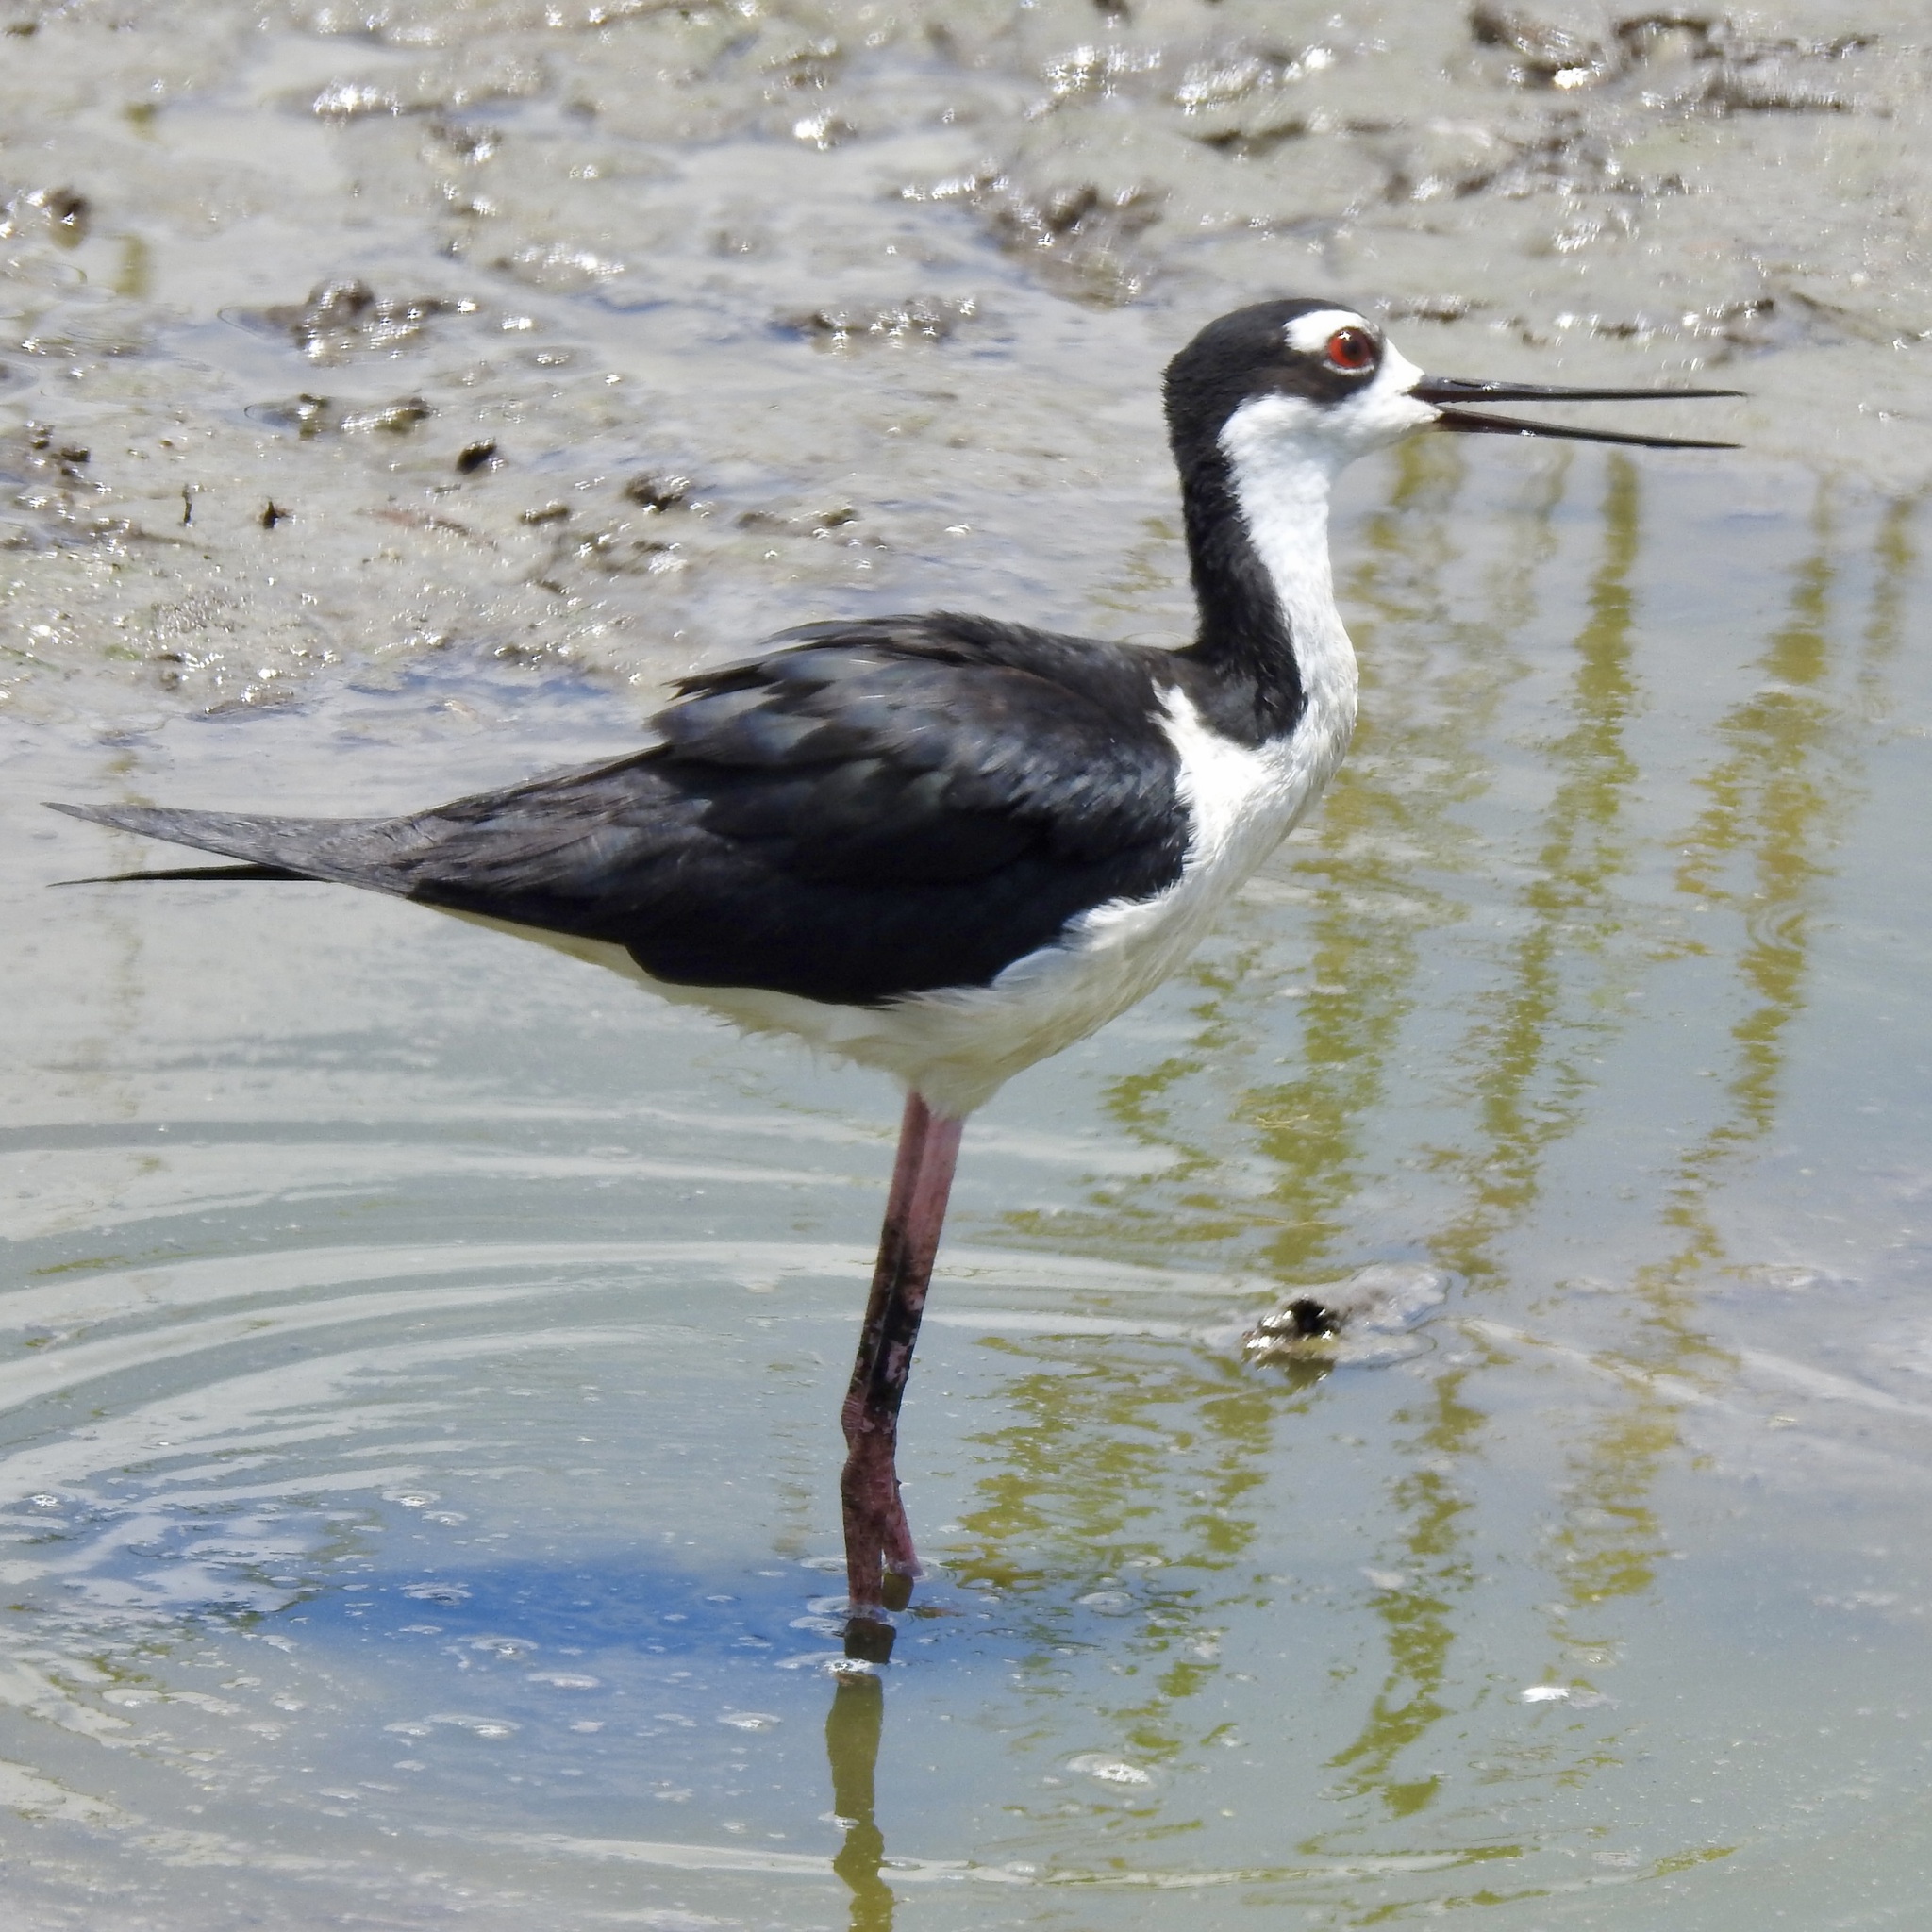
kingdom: Animalia
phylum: Chordata
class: Aves
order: Charadriiformes
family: Recurvirostridae
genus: Himantopus
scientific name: Himantopus mexicanus
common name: Black-necked stilt
